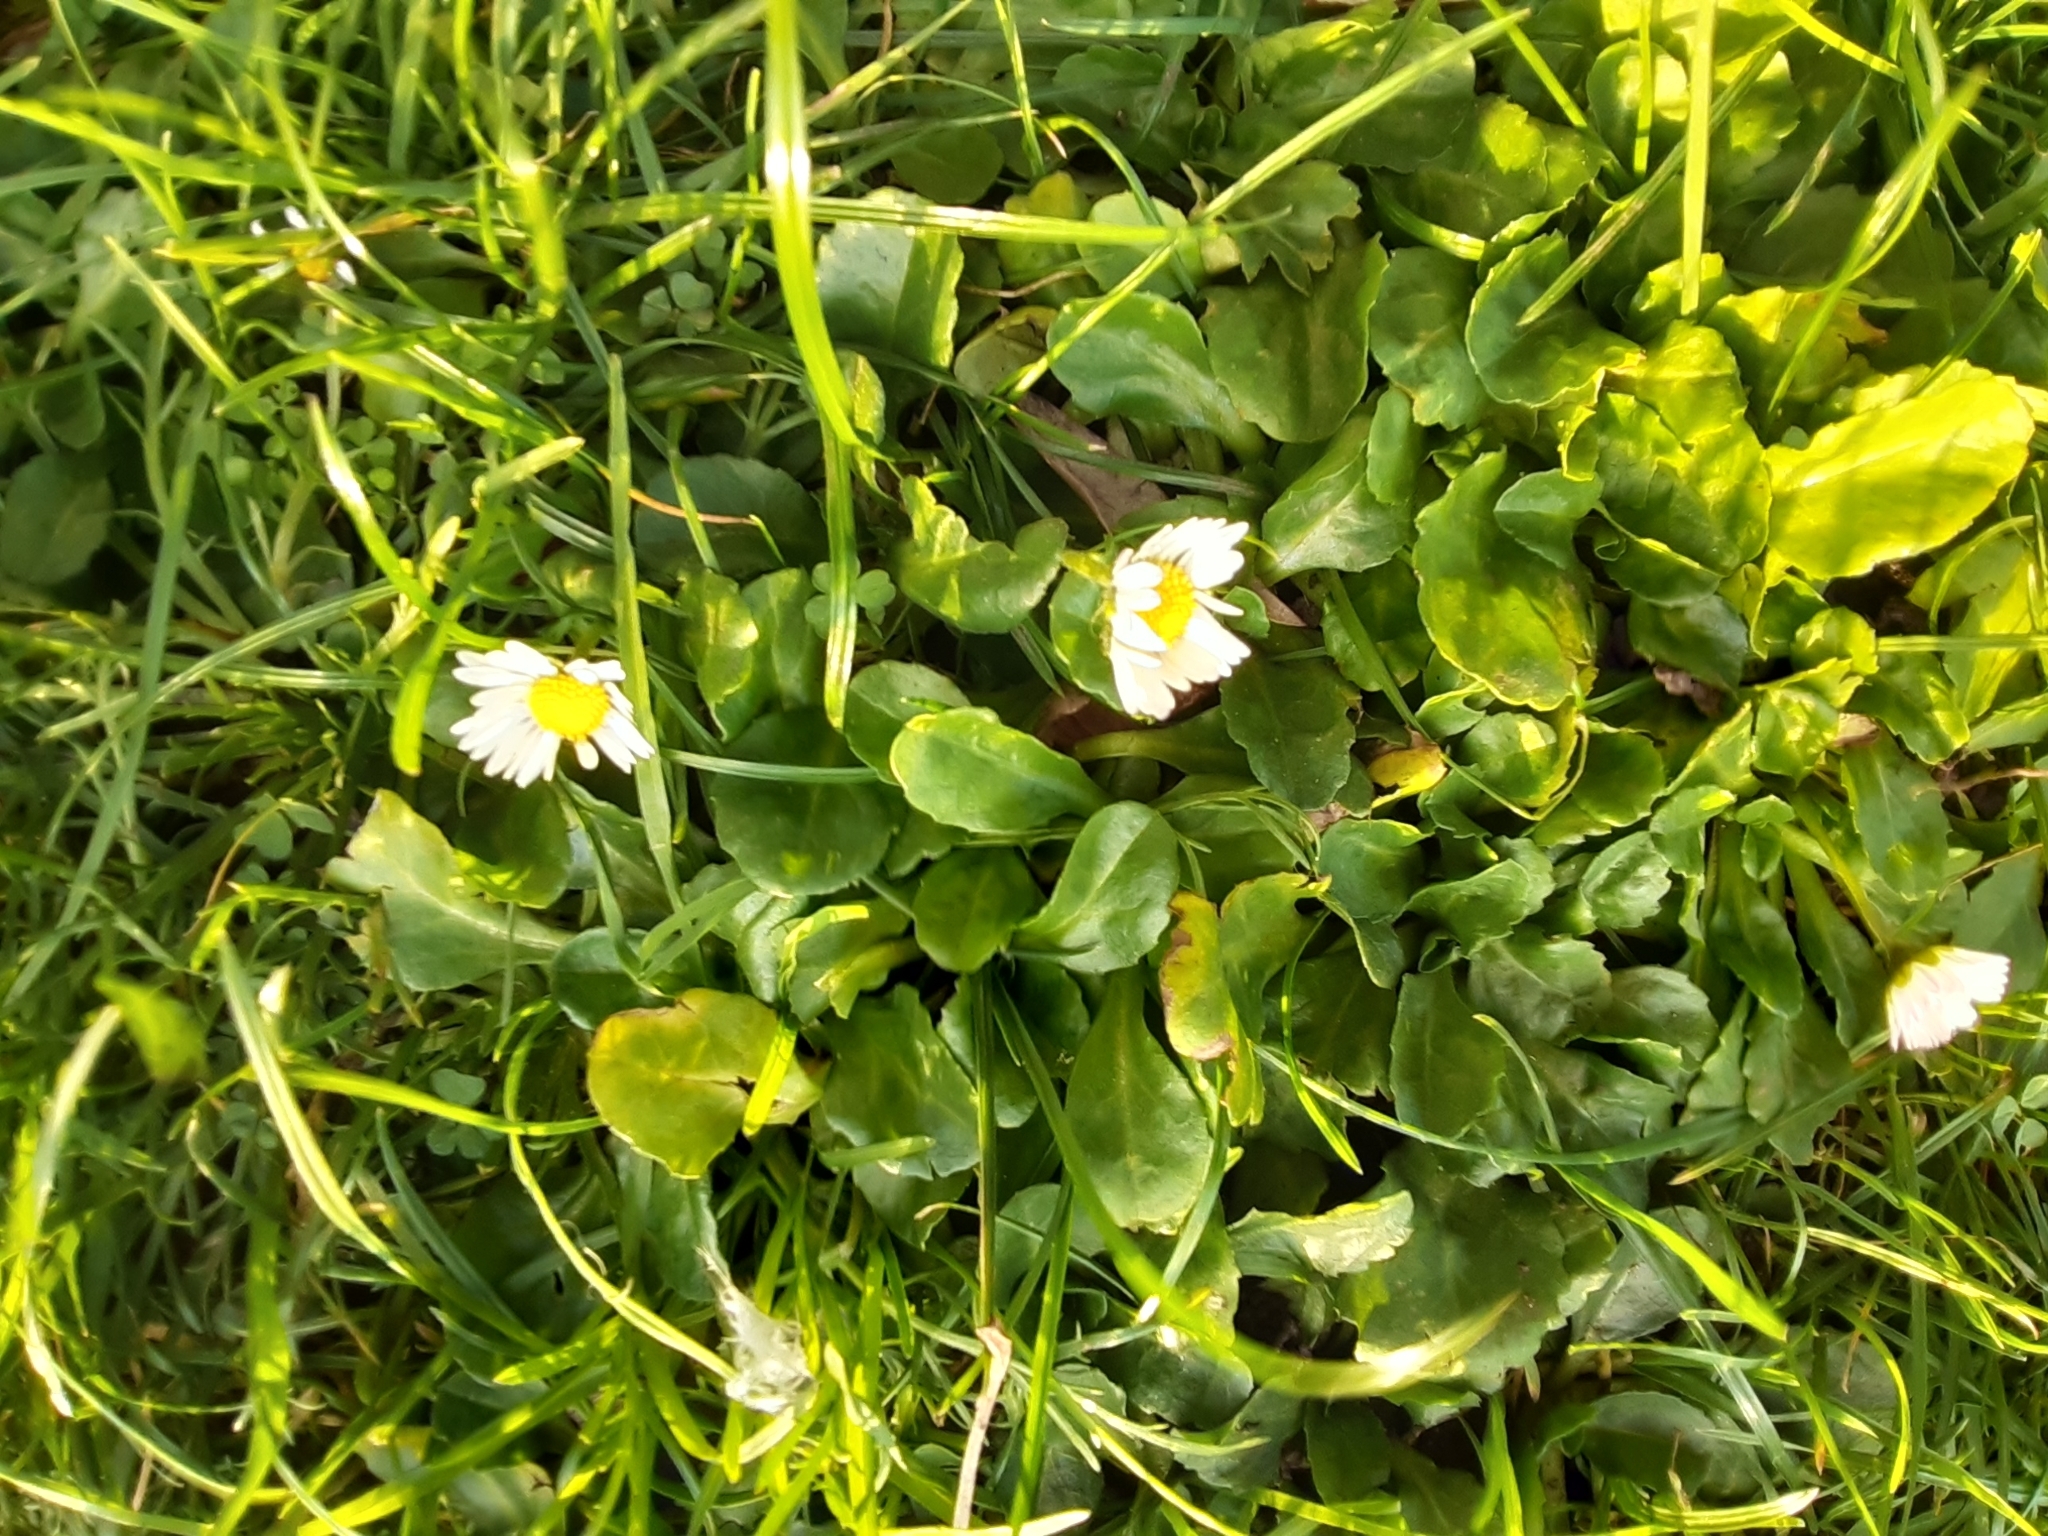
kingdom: Plantae
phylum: Tracheophyta
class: Magnoliopsida
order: Asterales
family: Asteraceae
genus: Bellis
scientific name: Bellis perennis
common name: Lawndaisy
